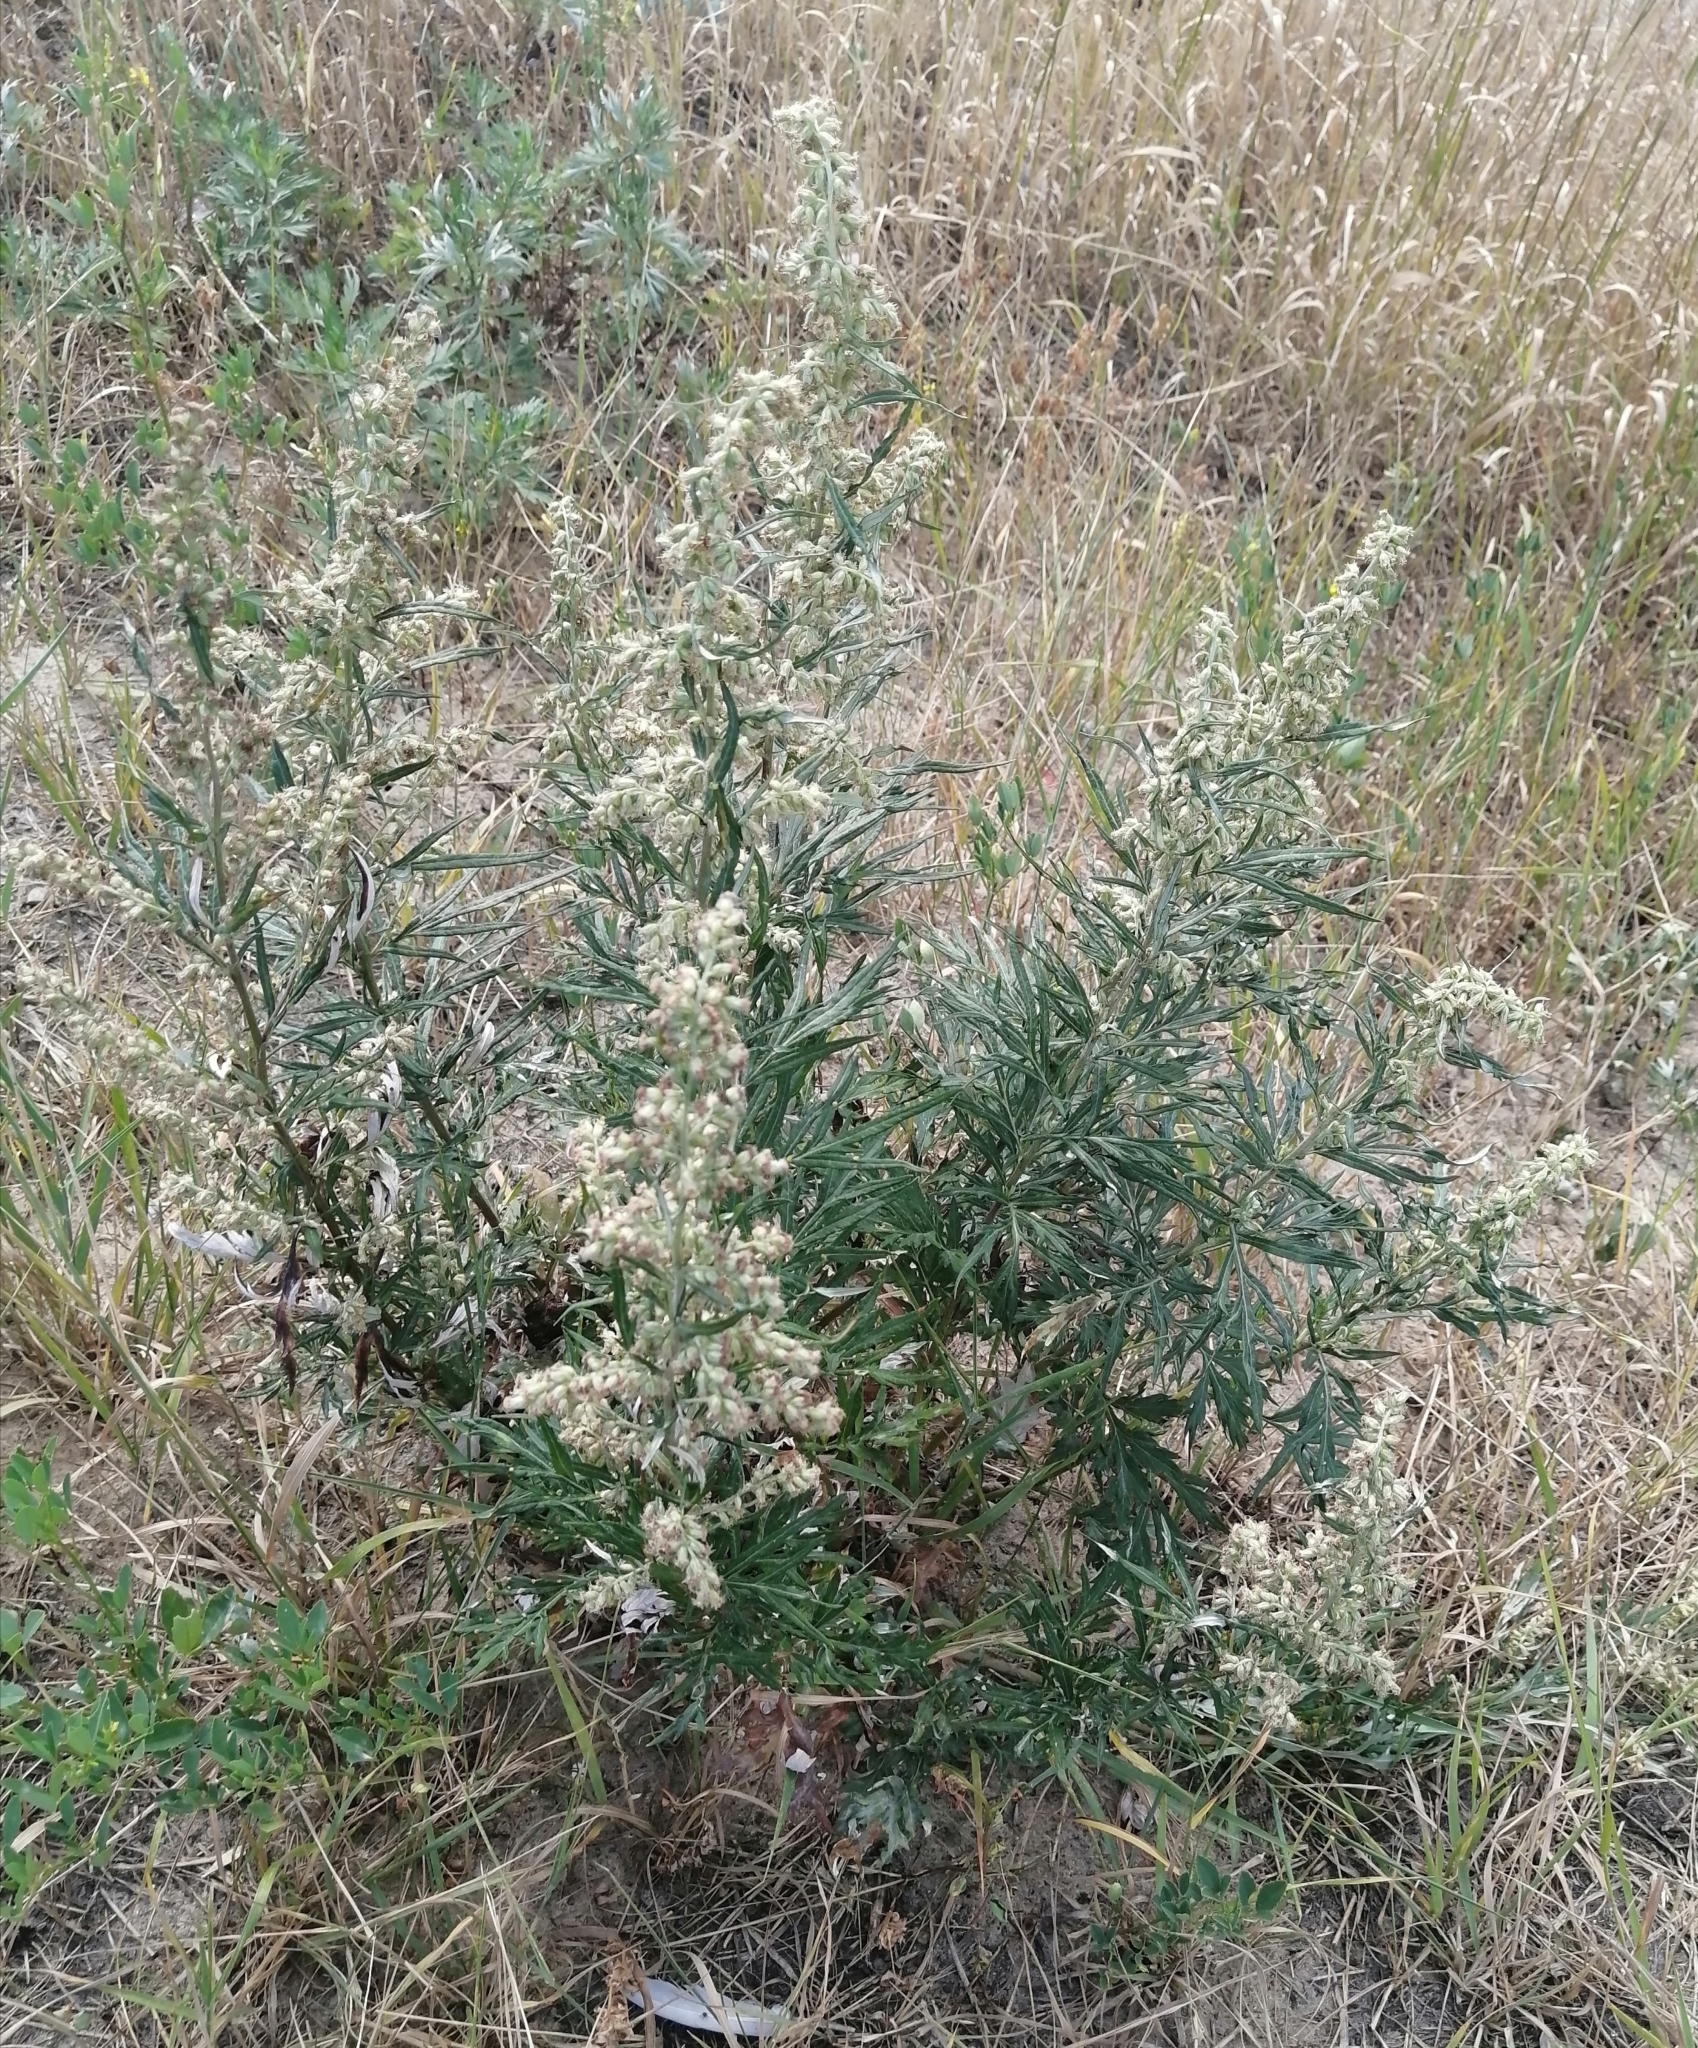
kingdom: Plantae
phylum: Tracheophyta
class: Magnoliopsida
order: Asterales
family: Asteraceae
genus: Artemisia
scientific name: Artemisia vulgaris
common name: Mugwort
